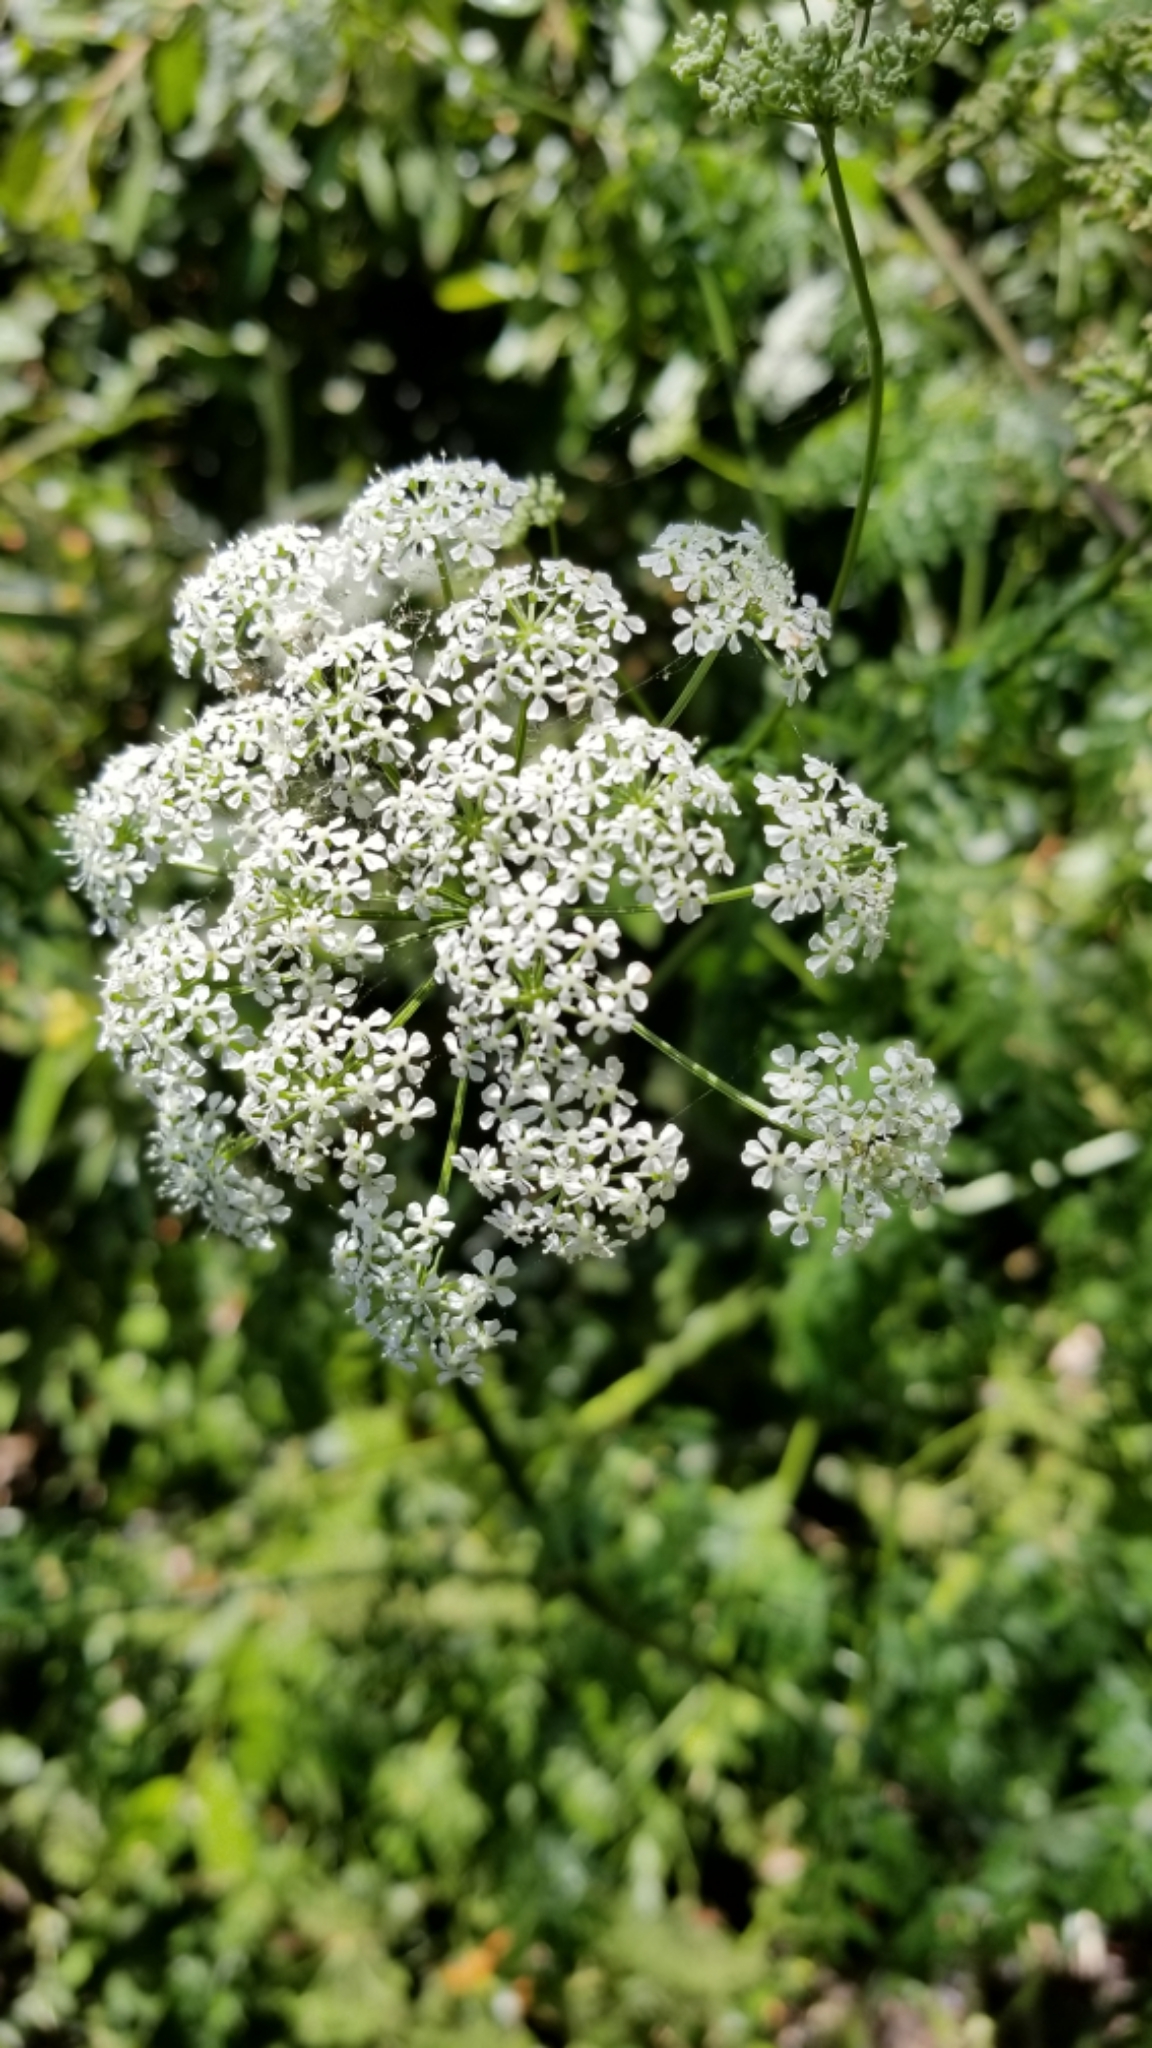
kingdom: Plantae
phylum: Tracheophyta
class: Magnoliopsida
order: Apiales
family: Apiaceae
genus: Conium
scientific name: Conium maculatum
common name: Hemlock
